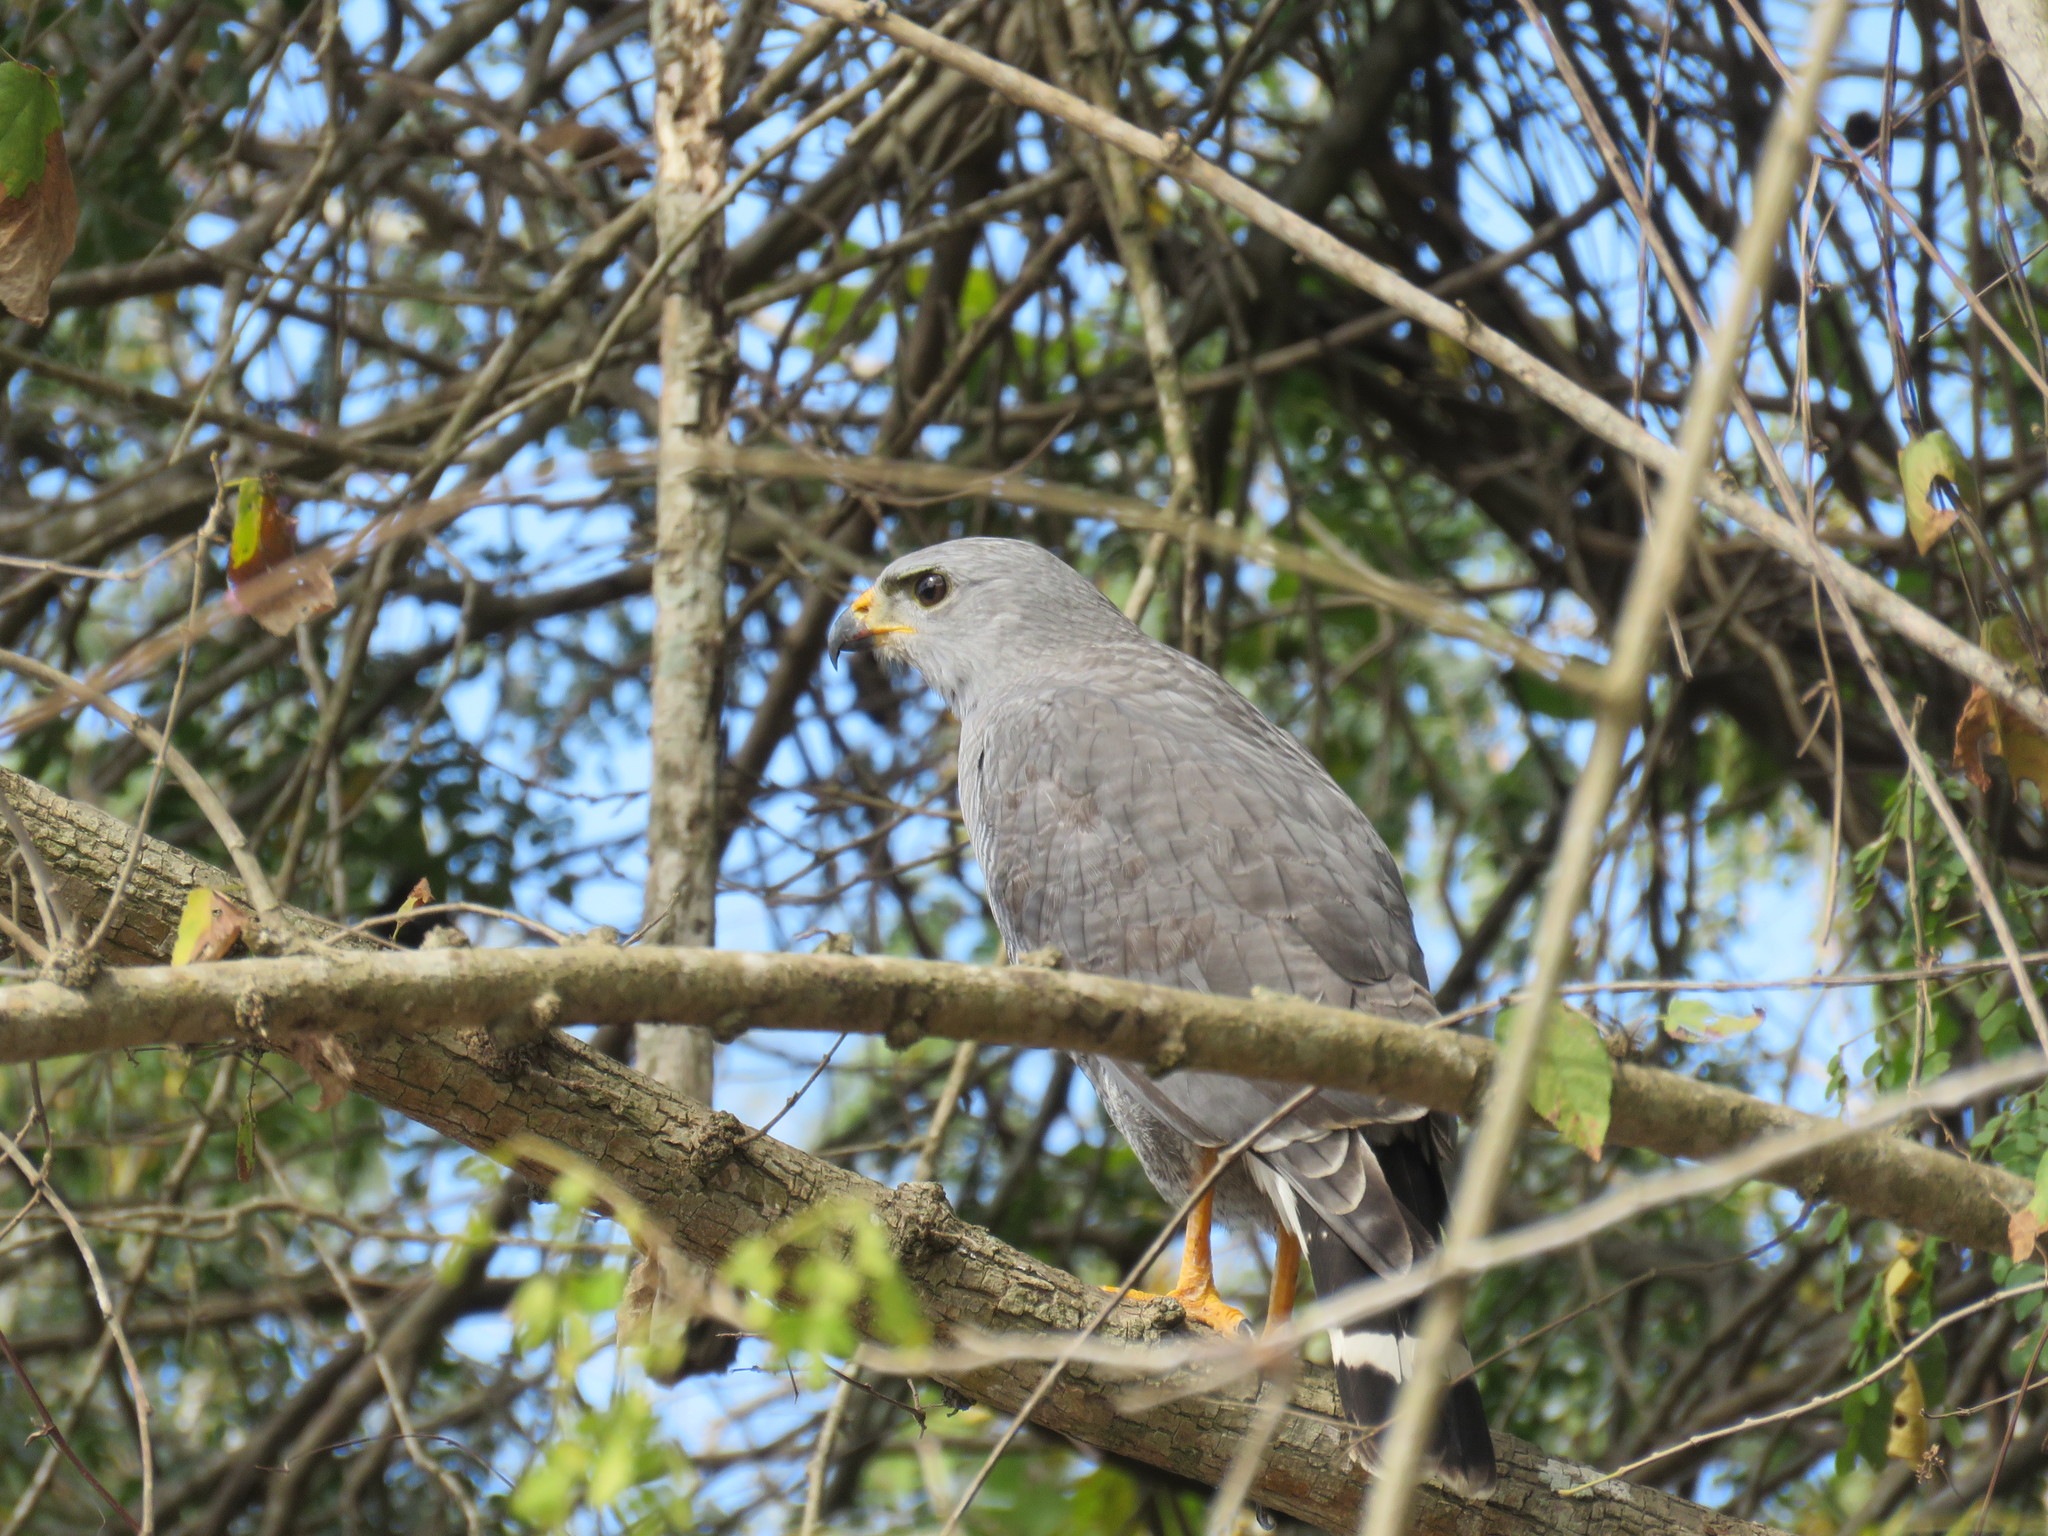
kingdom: Animalia
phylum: Chordata
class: Aves
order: Accipitriformes
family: Accipitridae
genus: Buteo
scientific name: Buteo nitidus
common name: Grey-lined hawk
